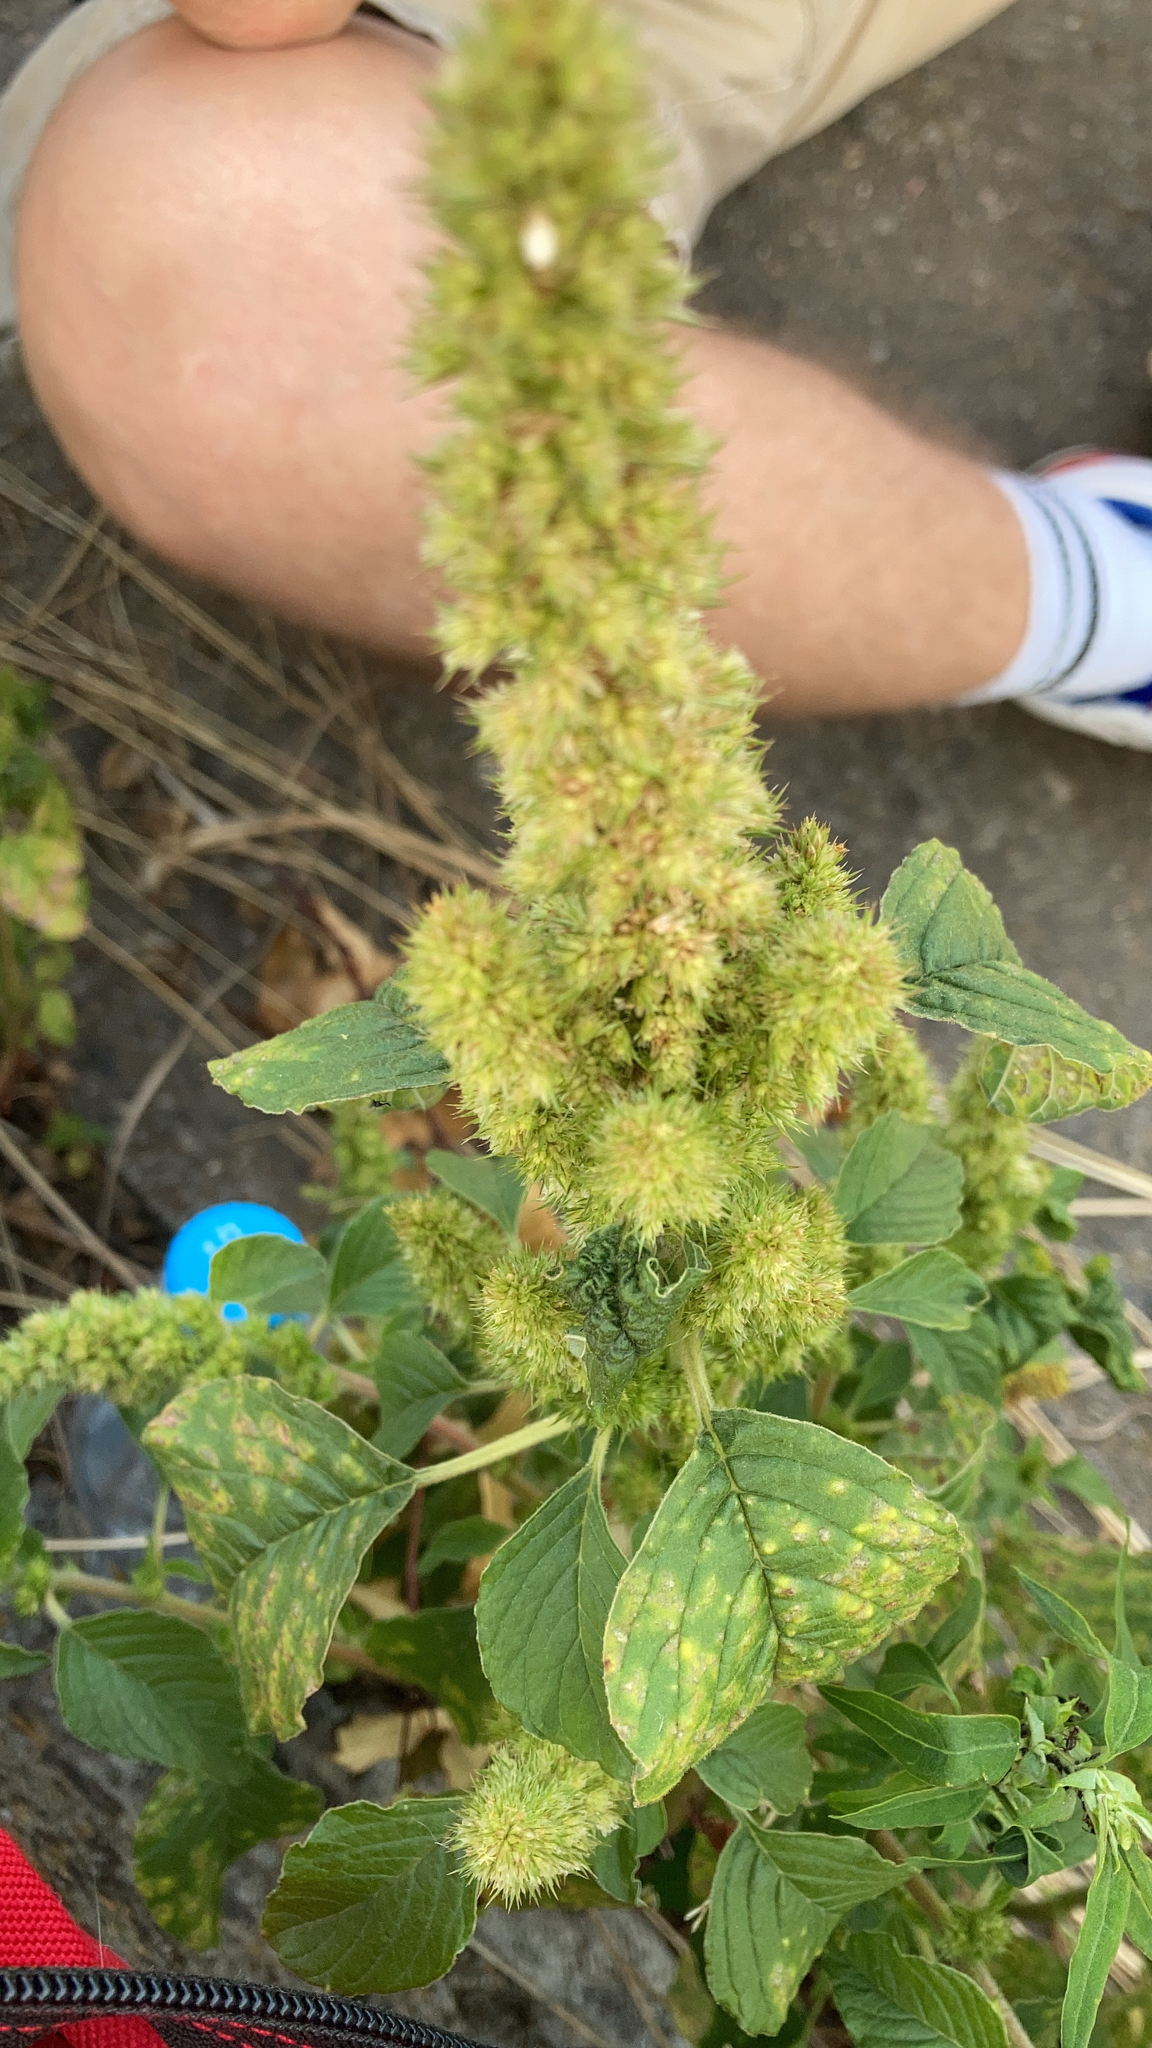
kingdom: Plantae
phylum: Tracheophyta
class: Magnoliopsida
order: Caryophyllales
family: Amaranthaceae
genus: Amaranthus
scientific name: Amaranthus retroflexus
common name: Redroot amaranth
